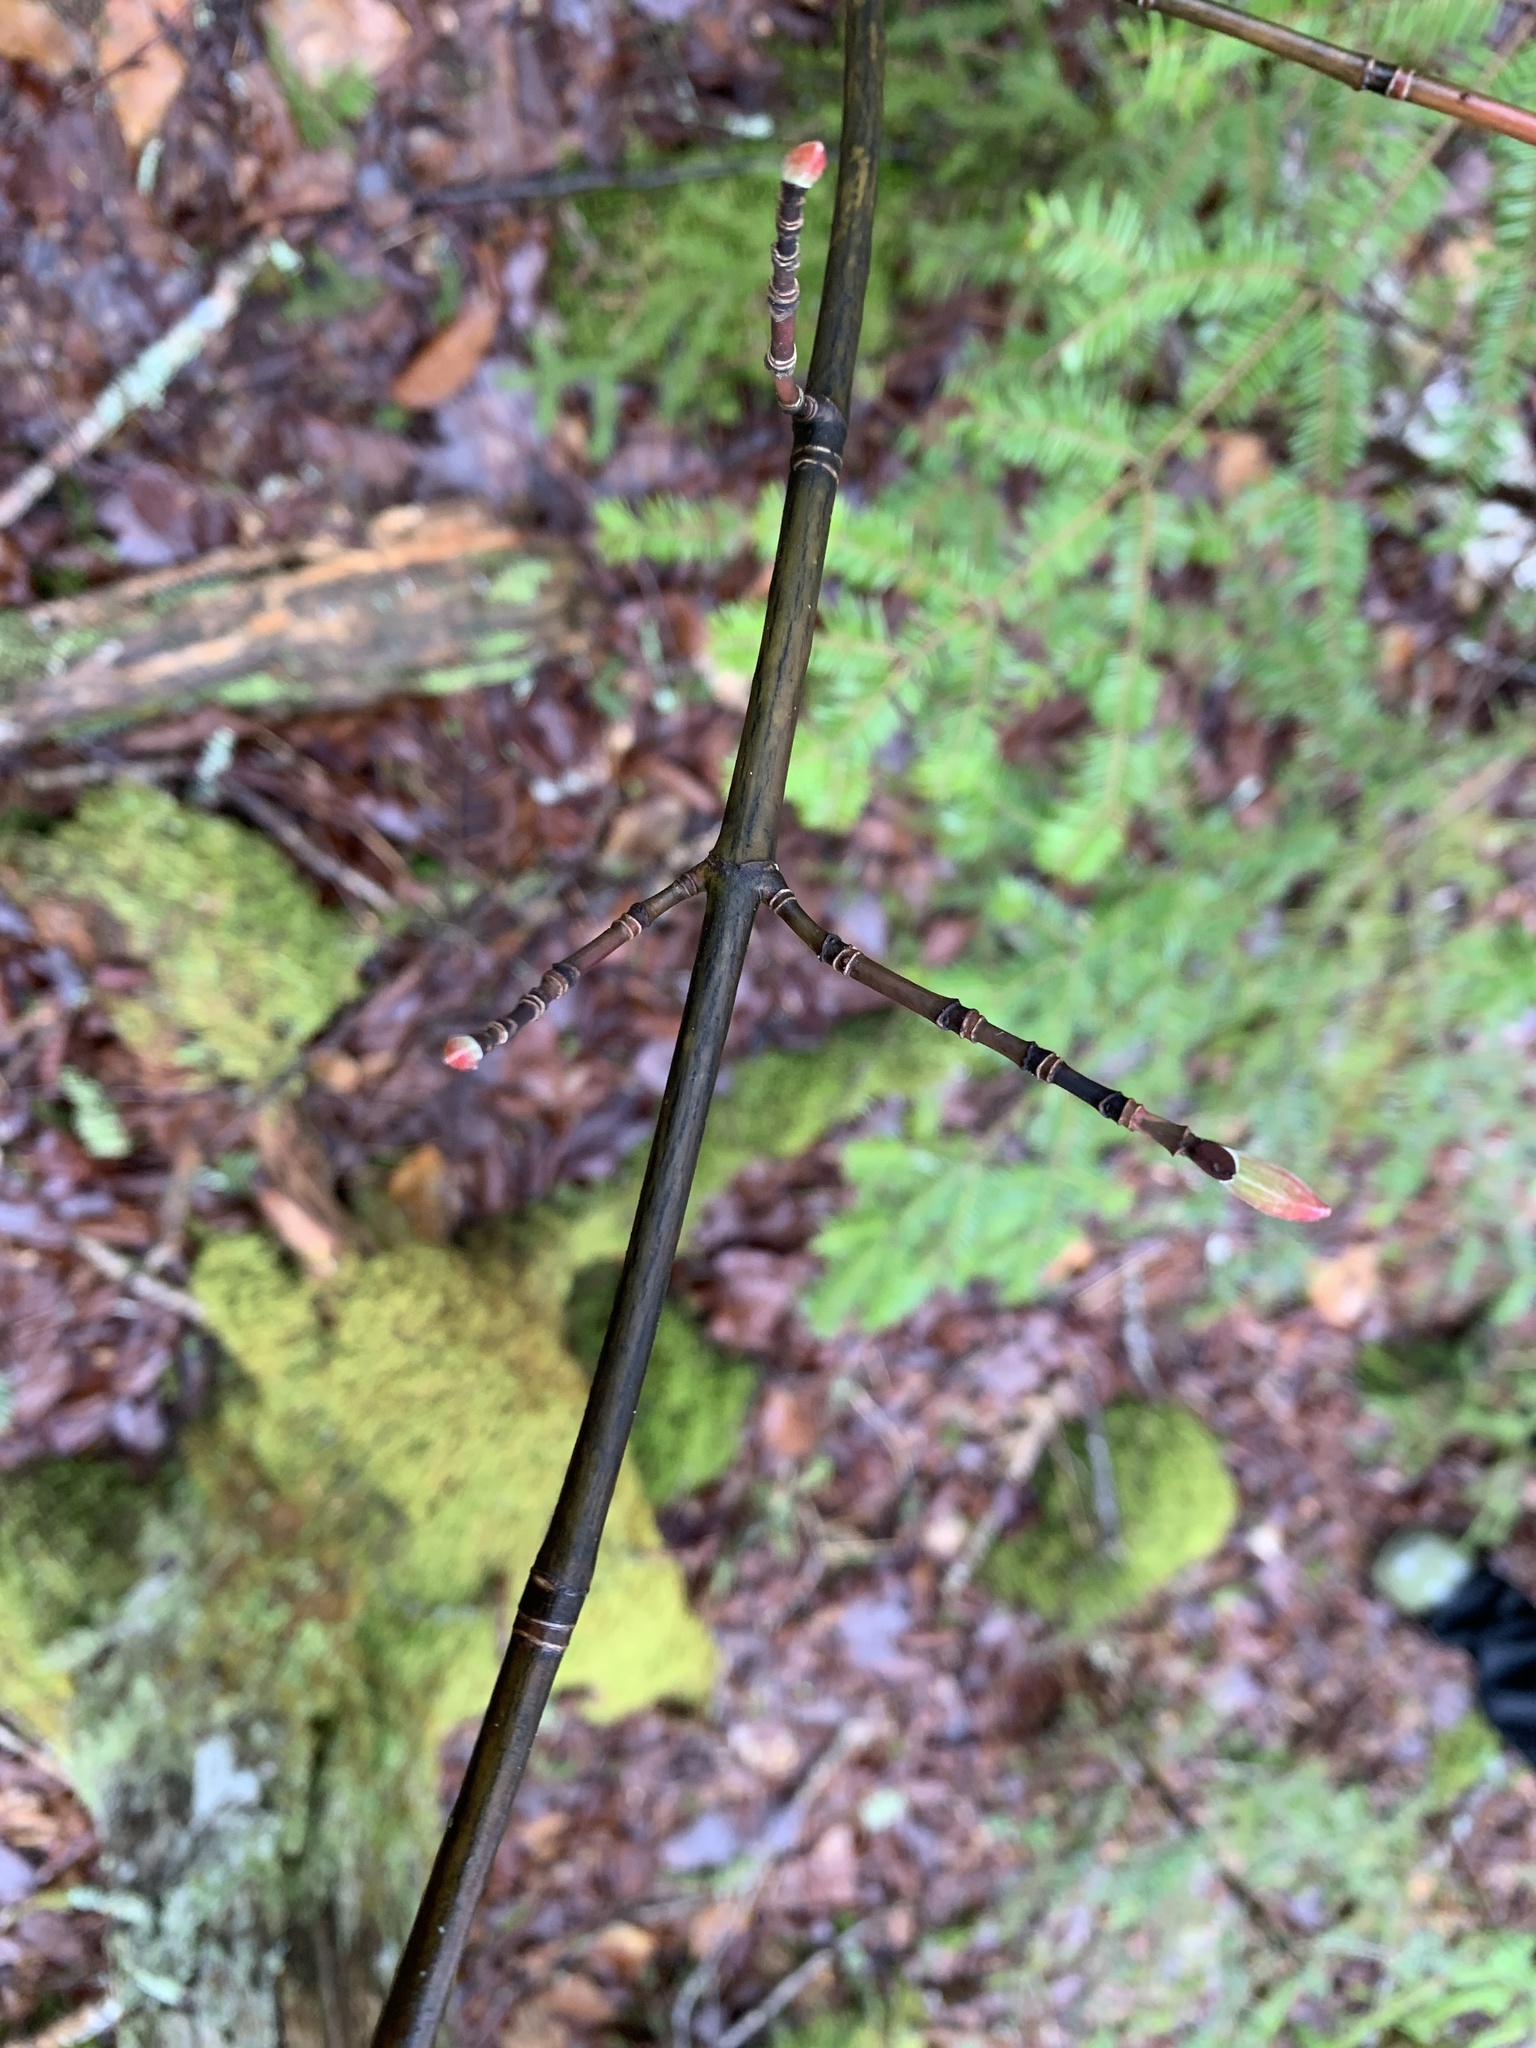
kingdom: Plantae
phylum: Tracheophyta
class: Magnoliopsida
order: Sapindales
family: Sapindaceae
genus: Acer
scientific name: Acer pensylvanicum
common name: Moosewood
